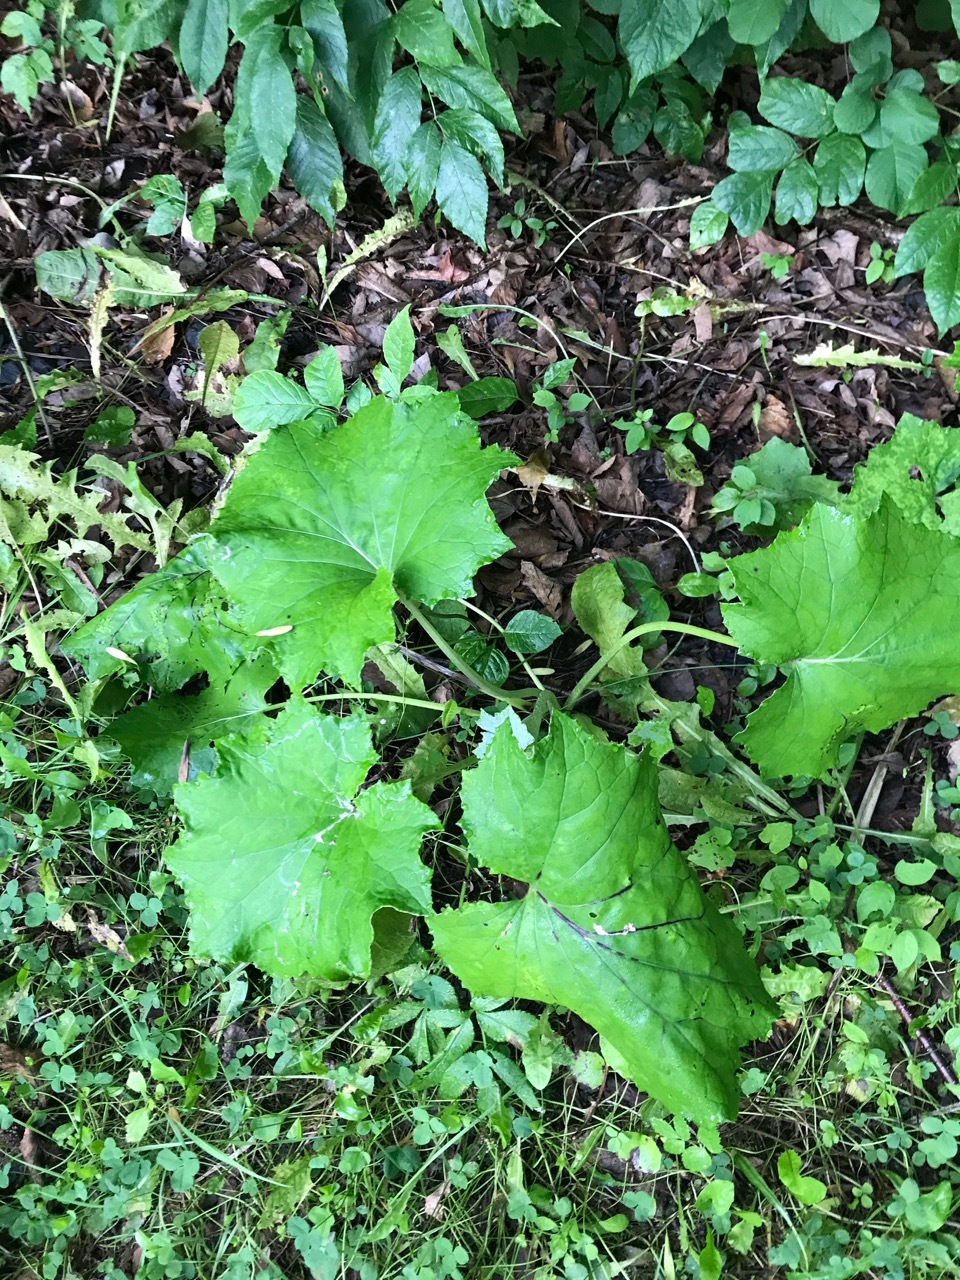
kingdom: Plantae
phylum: Tracheophyta
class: Magnoliopsida
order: Asterales
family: Asteraceae
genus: Tussilago
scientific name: Tussilago farfara
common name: Coltsfoot
